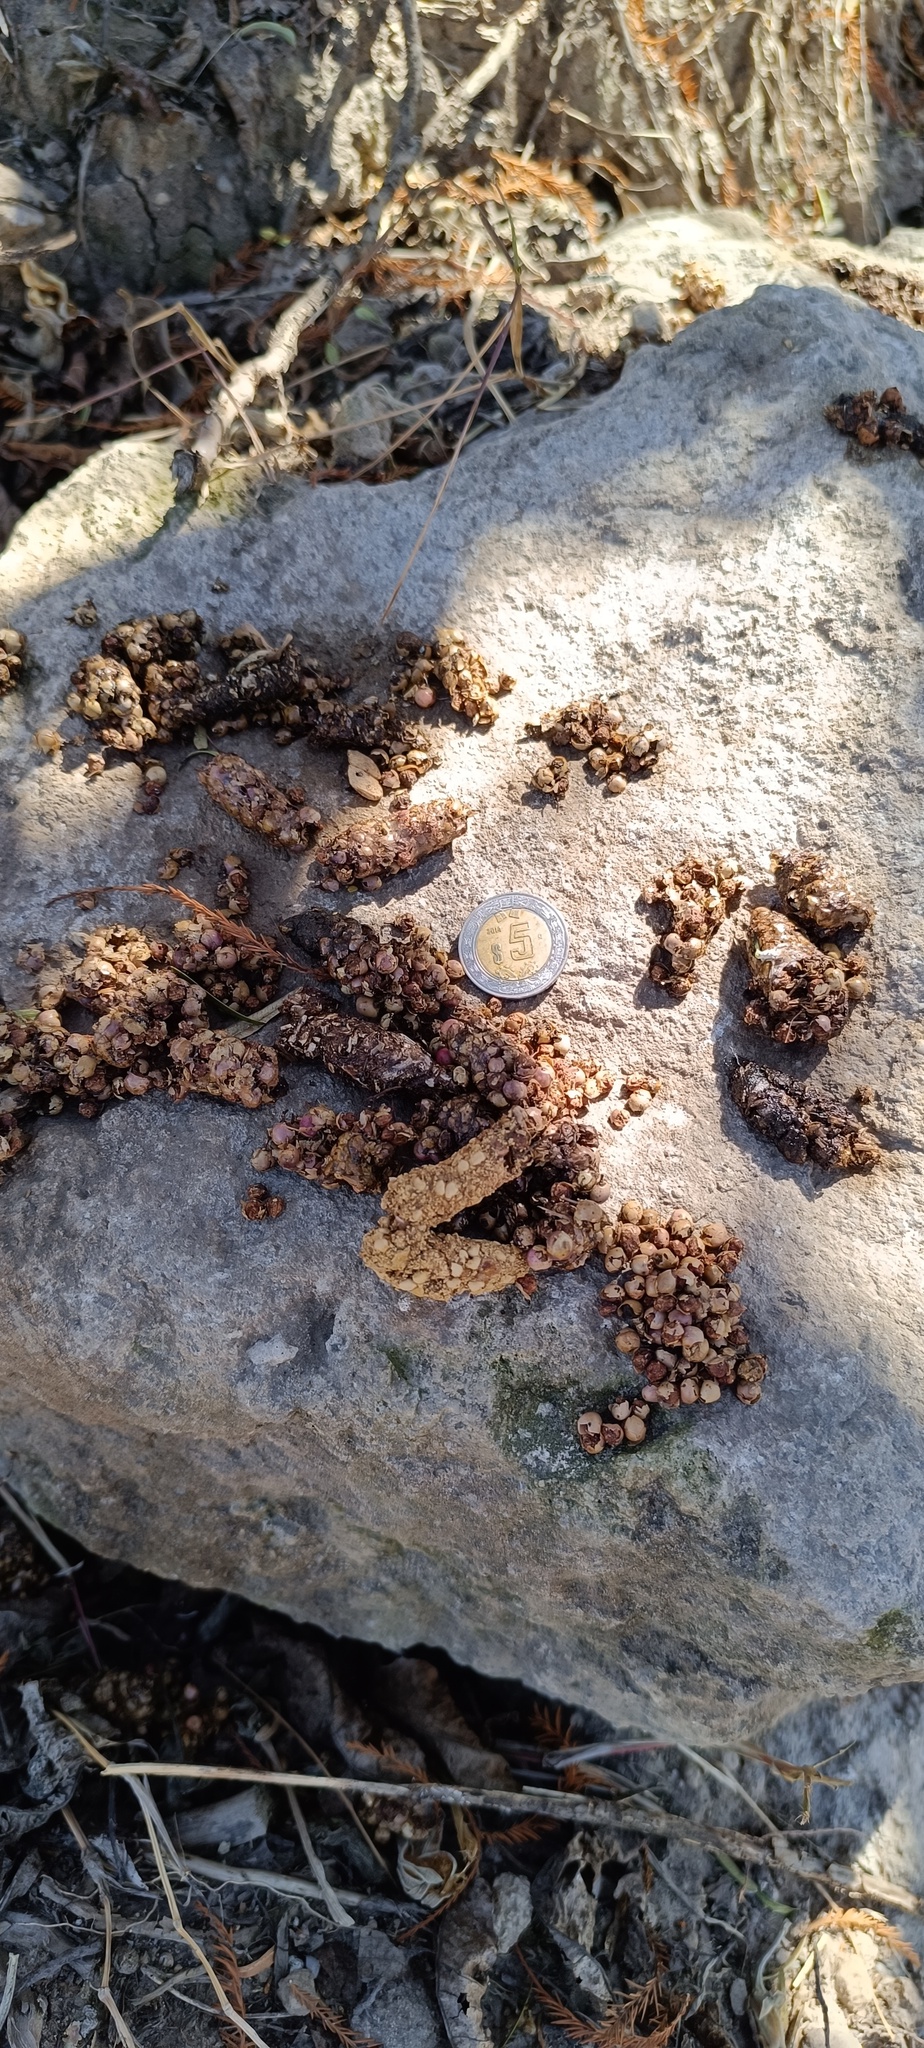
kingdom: Animalia
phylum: Chordata
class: Mammalia
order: Carnivora
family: Procyonidae
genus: Bassariscus
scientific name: Bassariscus astutus
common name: Ringtail
